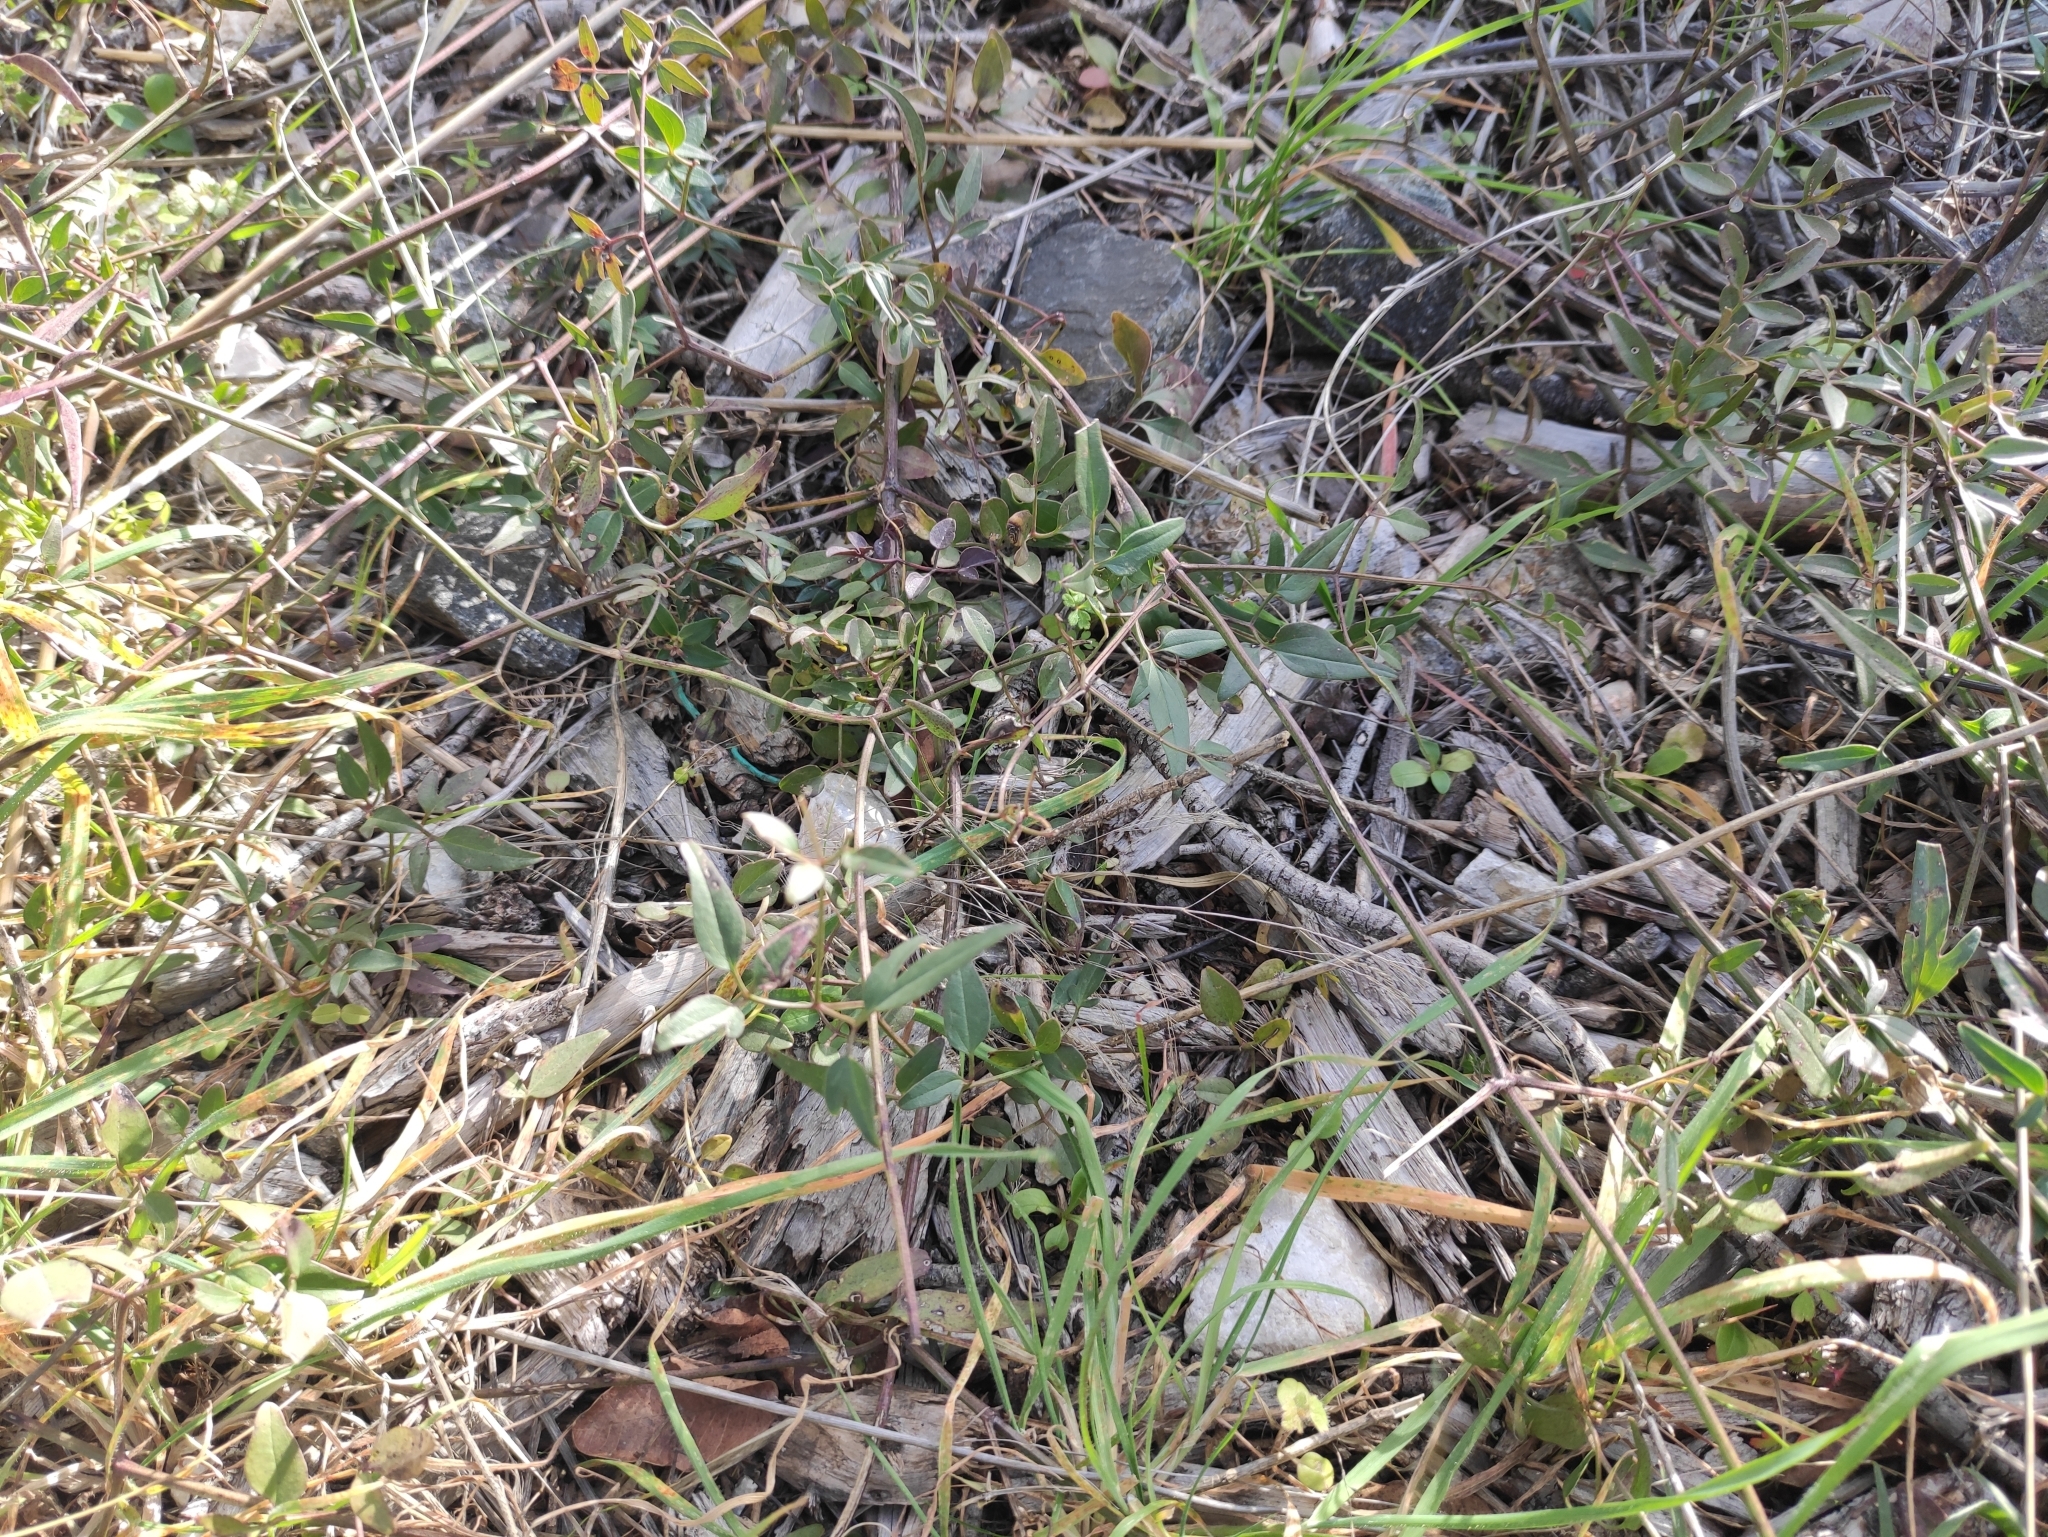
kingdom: Plantae
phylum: Tracheophyta
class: Magnoliopsida
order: Ranunculales
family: Ranunculaceae
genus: Clematis
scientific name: Clematis flammula
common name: Virgin's-bower
